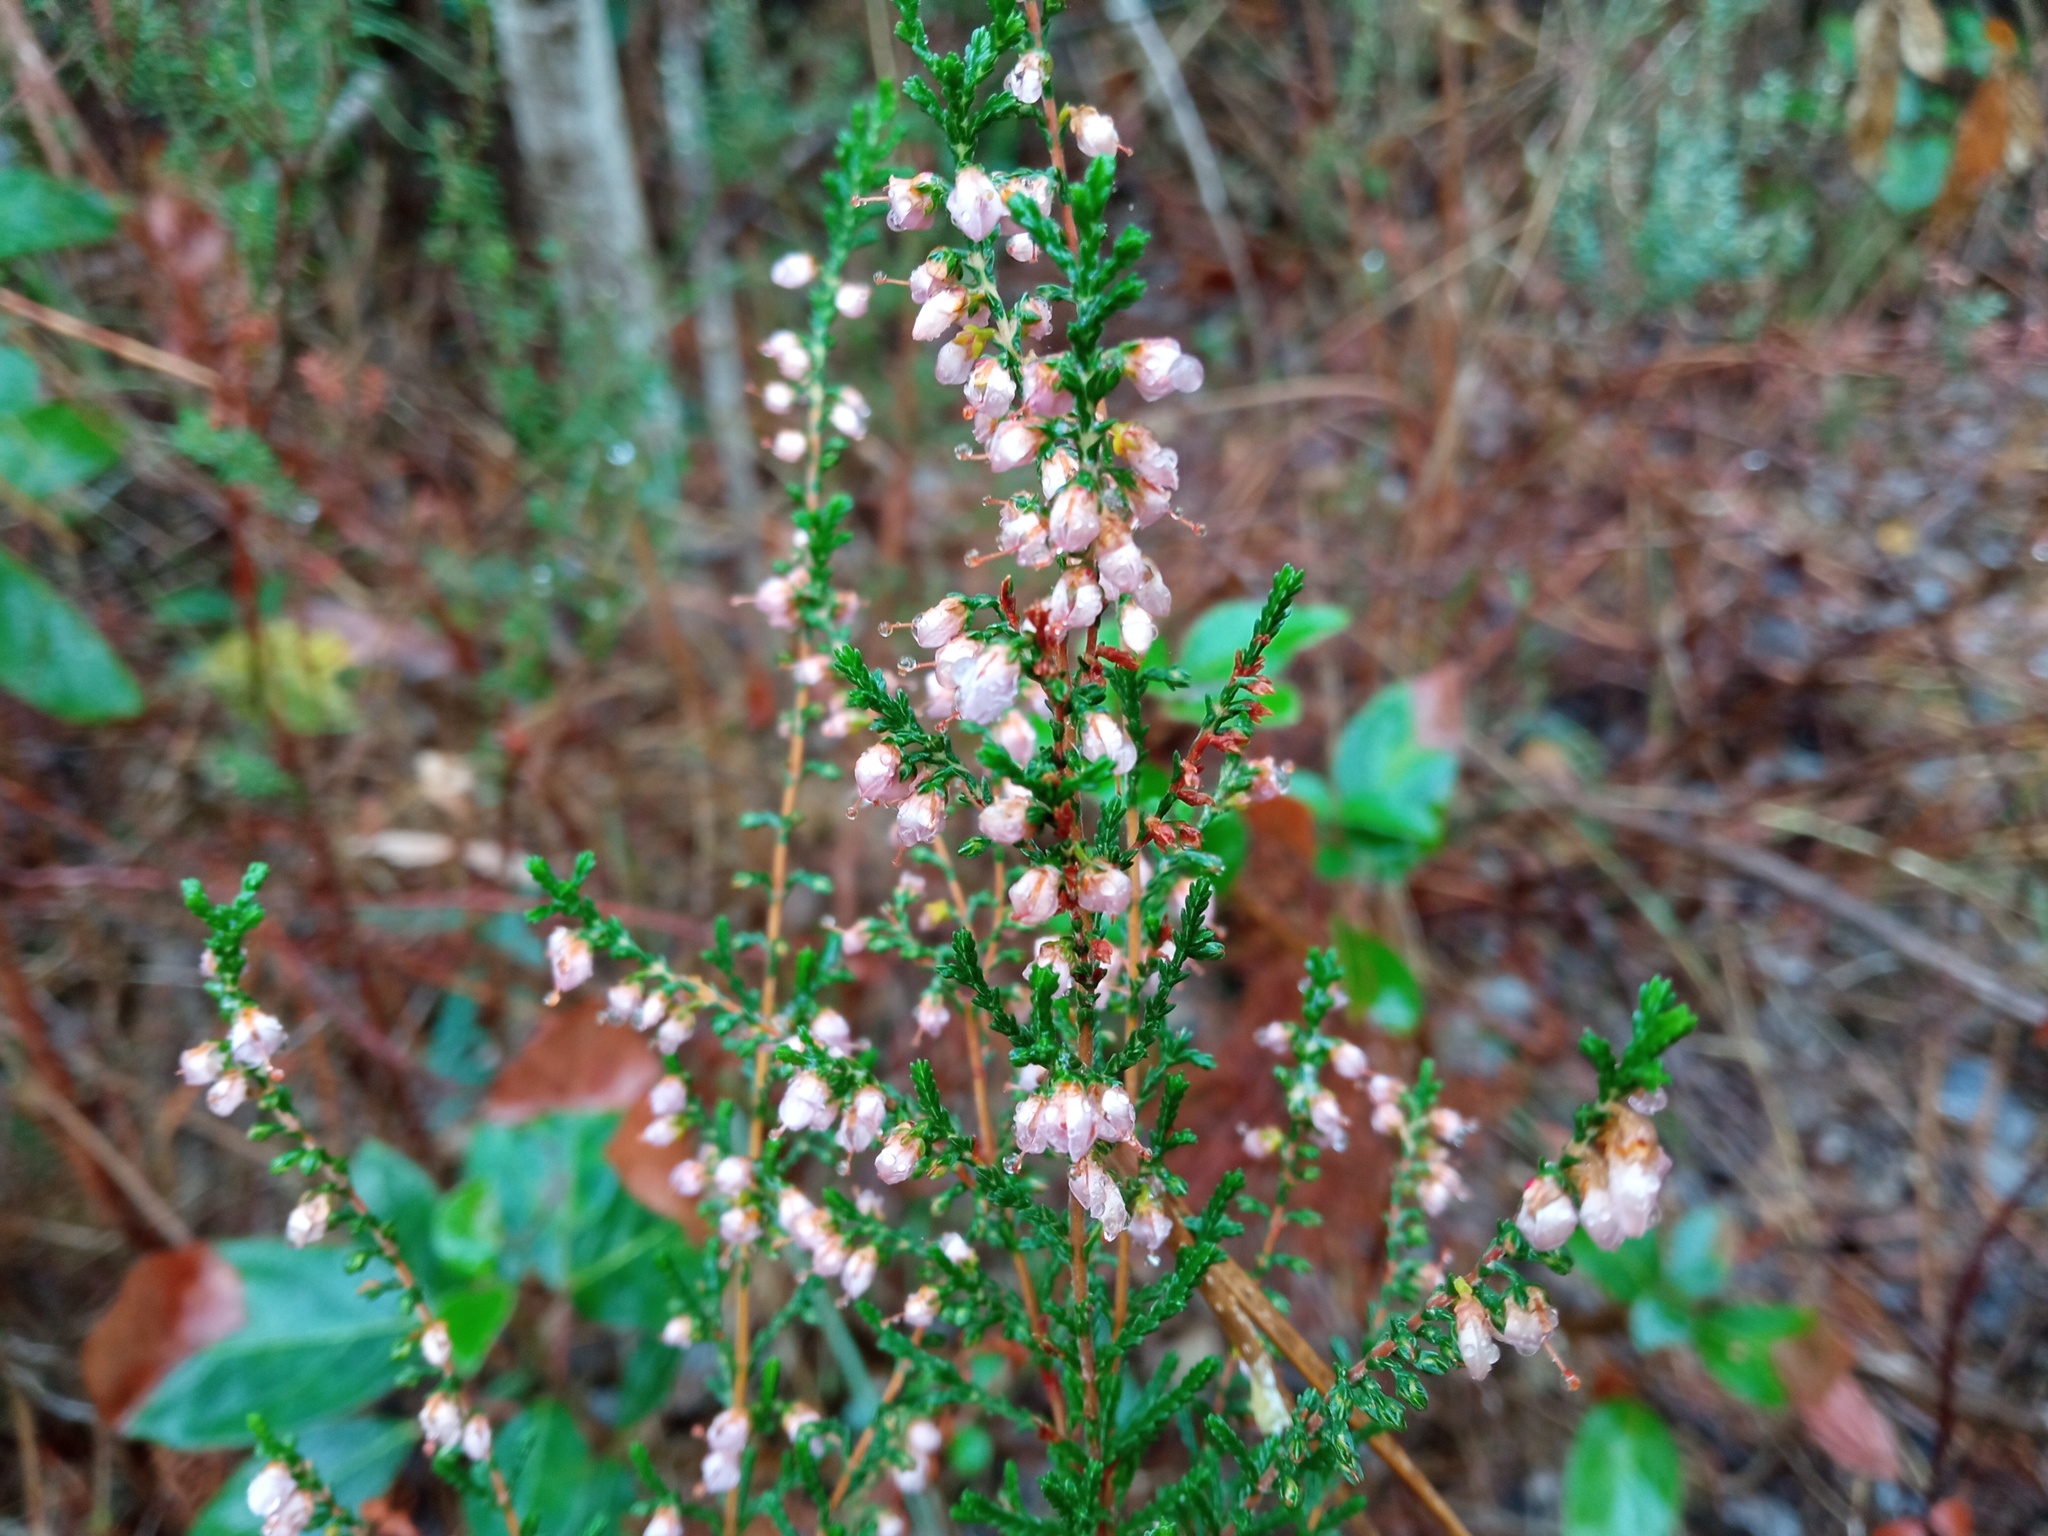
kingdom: Plantae
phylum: Tracheophyta
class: Magnoliopsida
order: Ericales
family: Ericaceae
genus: Calluna
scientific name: Calluna vulgaris
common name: Heather
